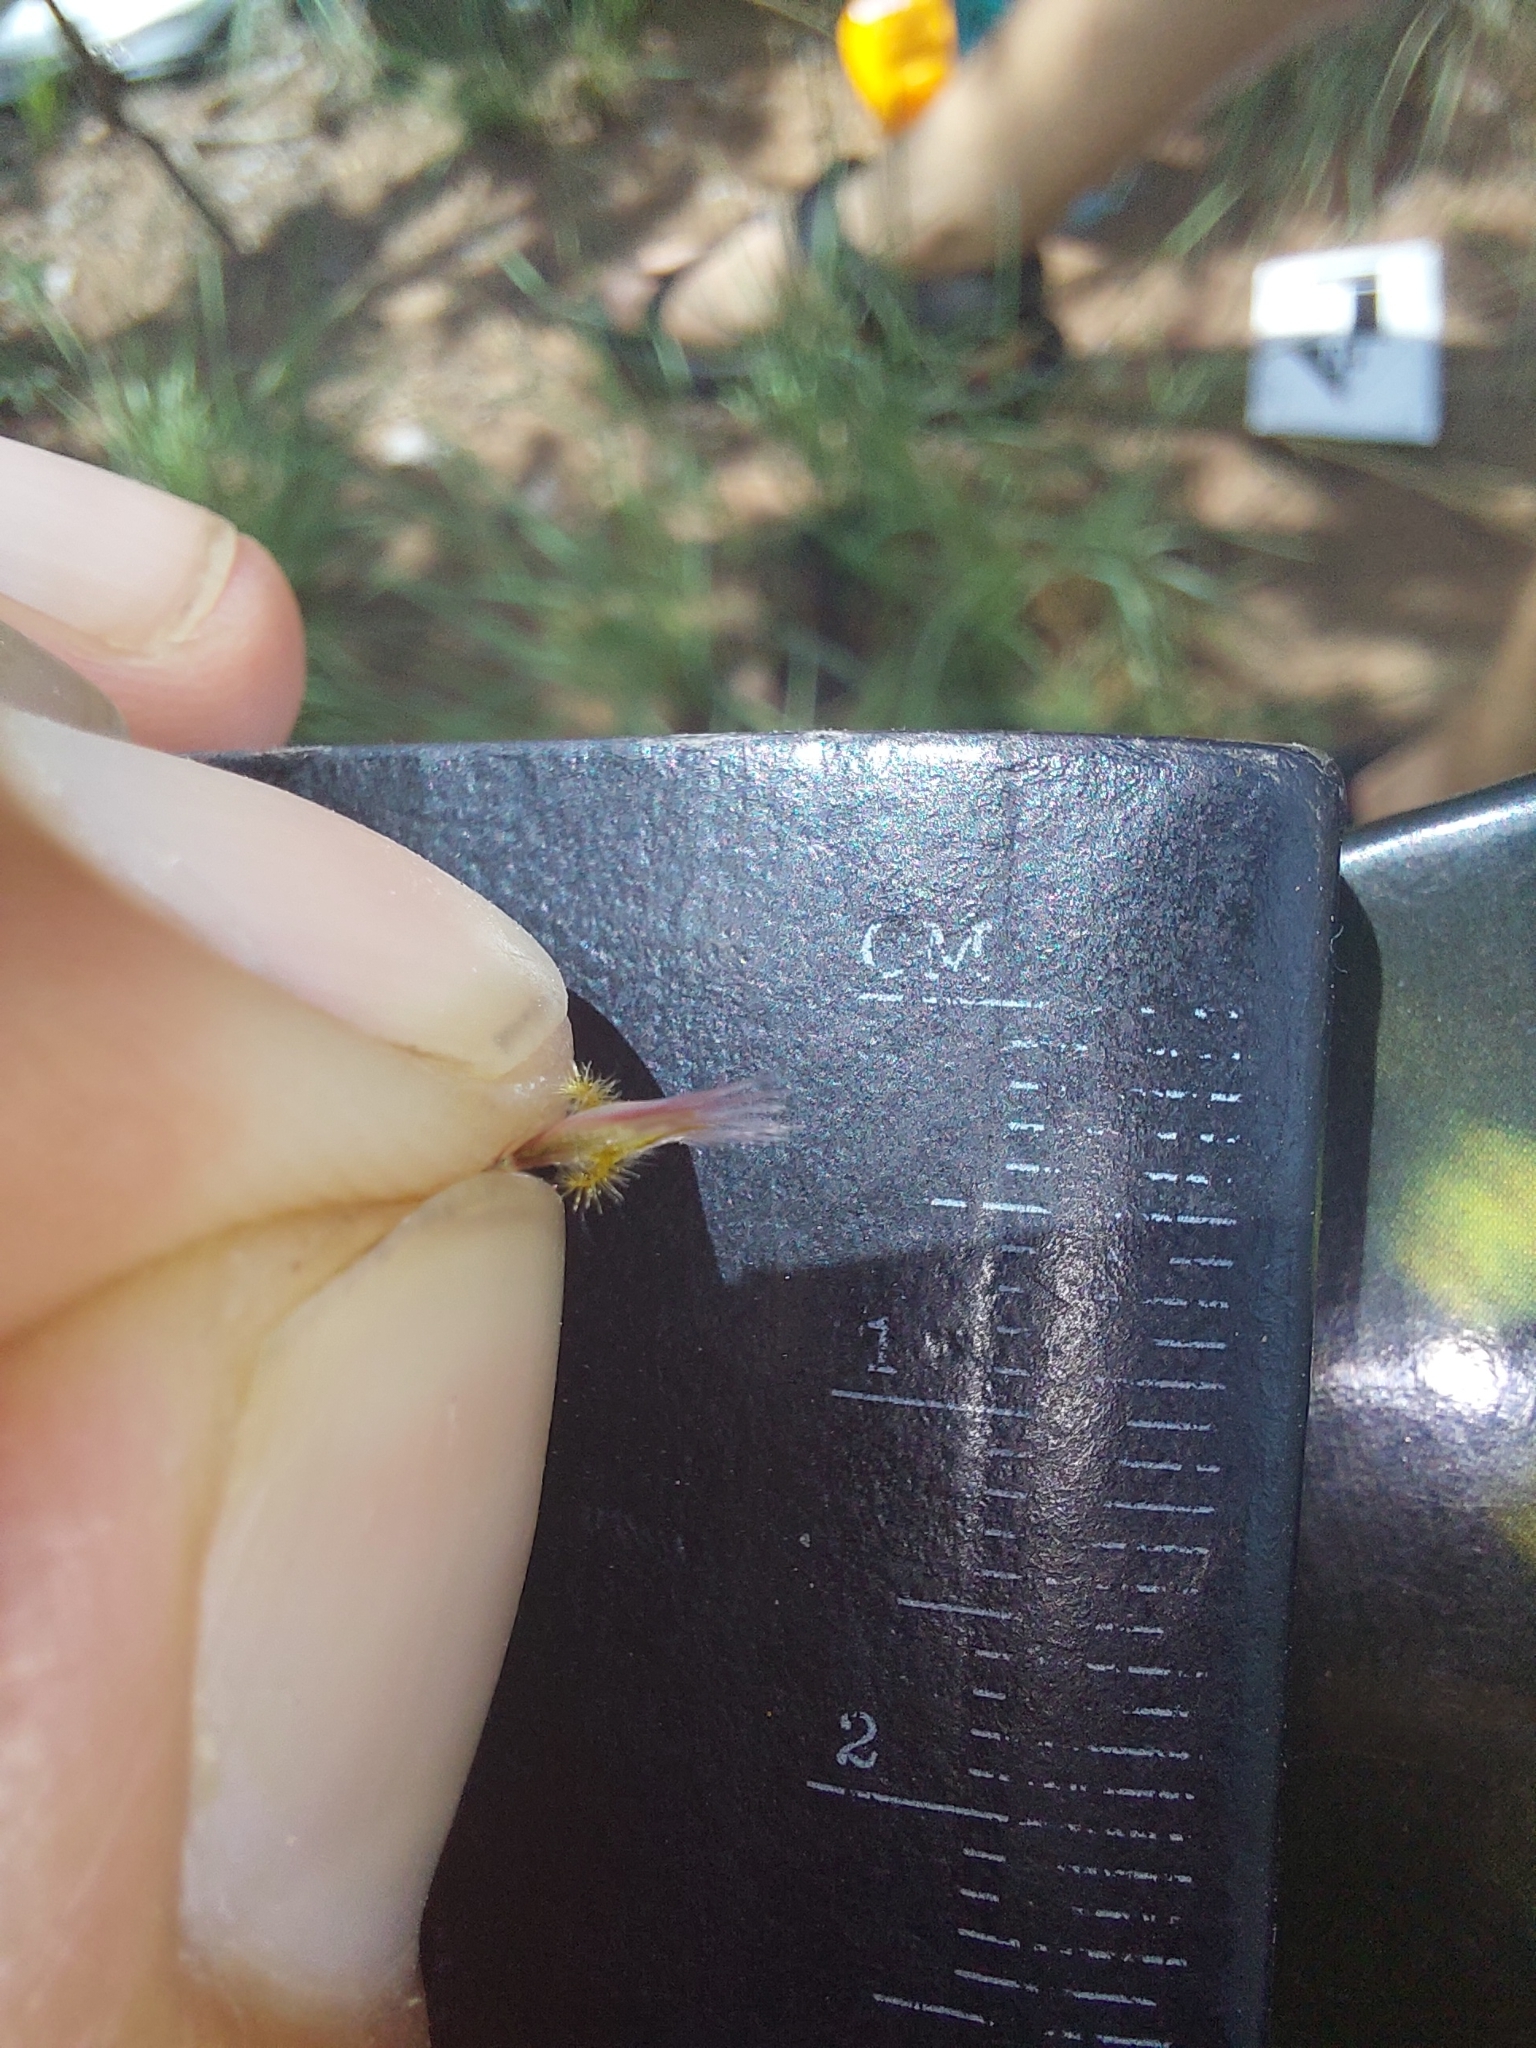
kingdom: Plantae
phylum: Tracheophyta
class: Liliopsida
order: Poales
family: Poaceae
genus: Melinis
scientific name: Melinis repens
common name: Rose natal grass
